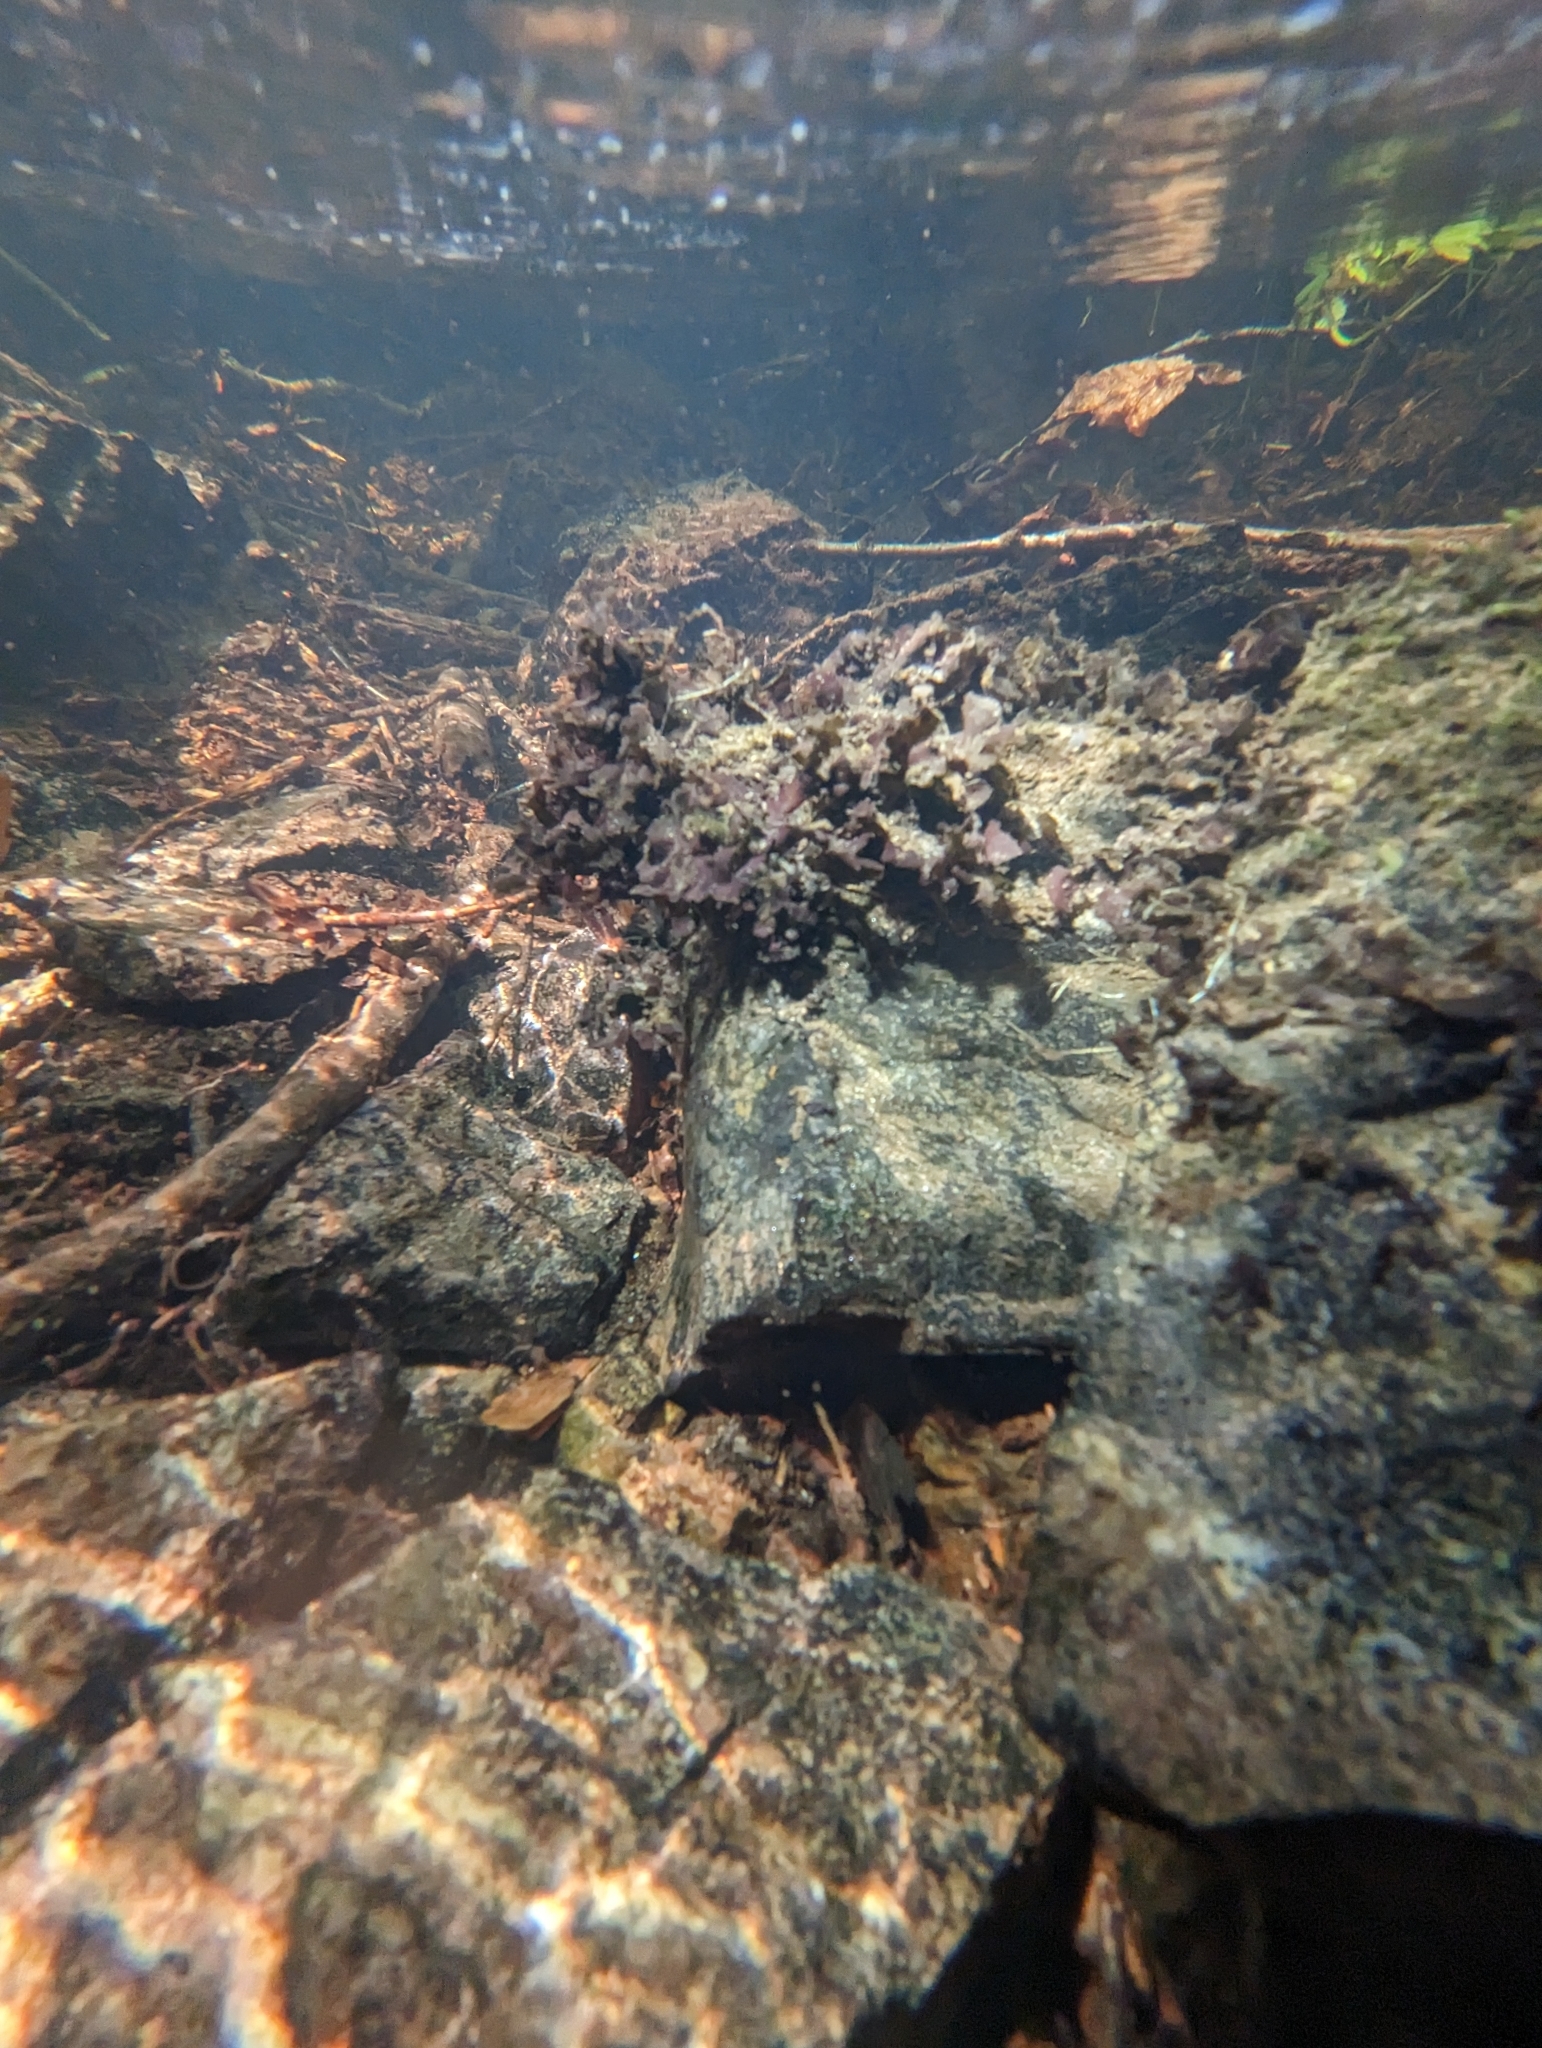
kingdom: Fungi
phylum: Ascomycota
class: Lecanoromycetes
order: Peltigerales
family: Peltigeraceae
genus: Peltigera
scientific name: Peltigera hydrothyria
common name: Aquatic pelt lichen
